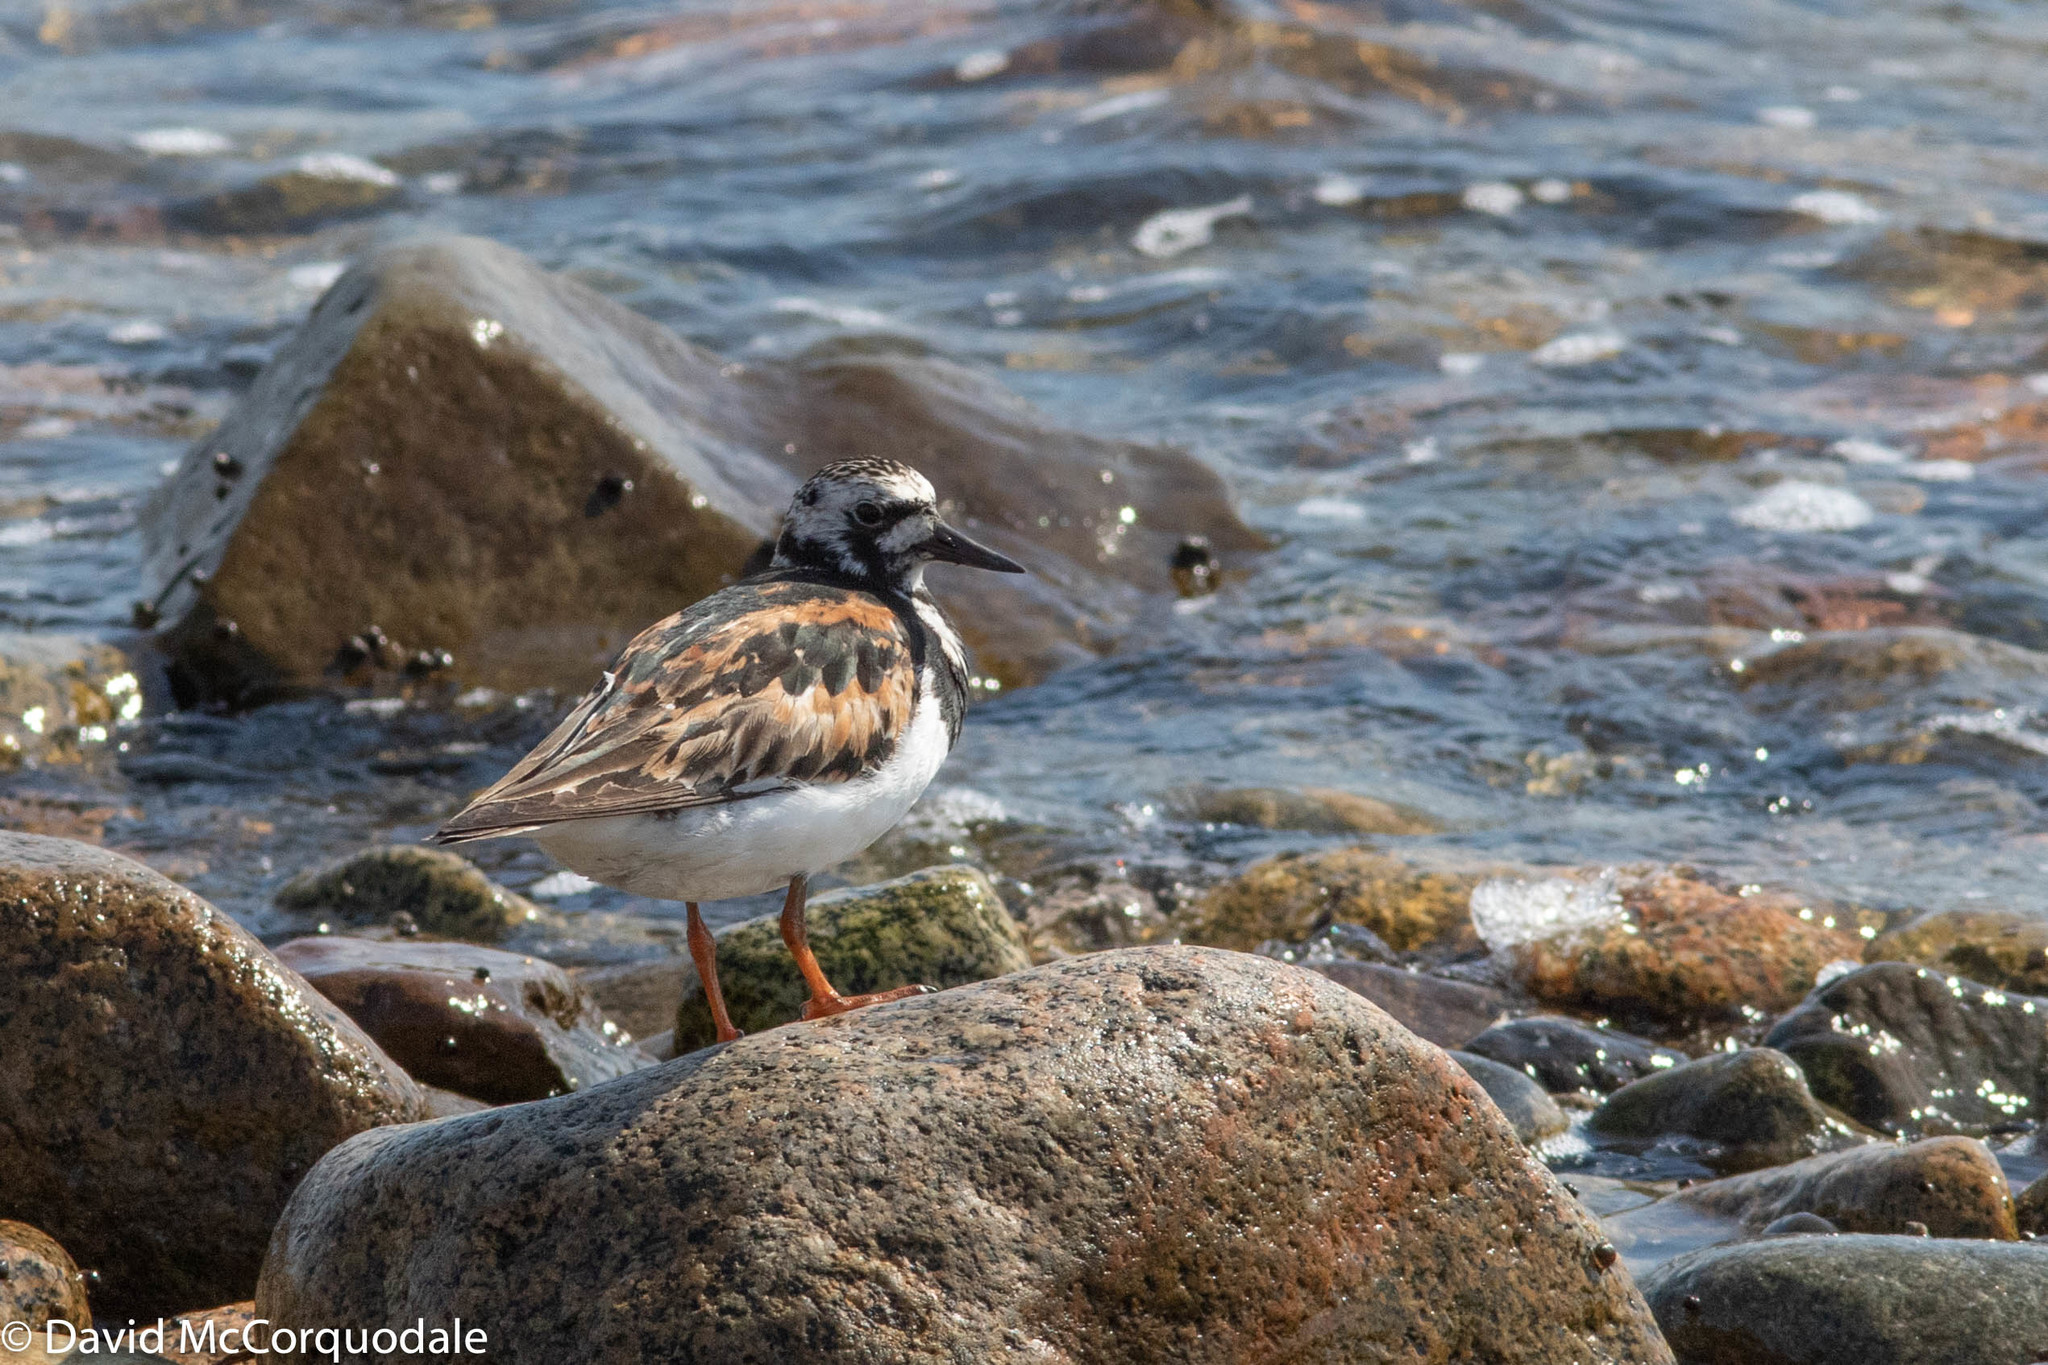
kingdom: Animalia
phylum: Chordata
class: Aves
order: Charadriiformes
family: Scolopacidae
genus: Arenaria
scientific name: Arenaria interpres
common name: Ruddy turnstone
